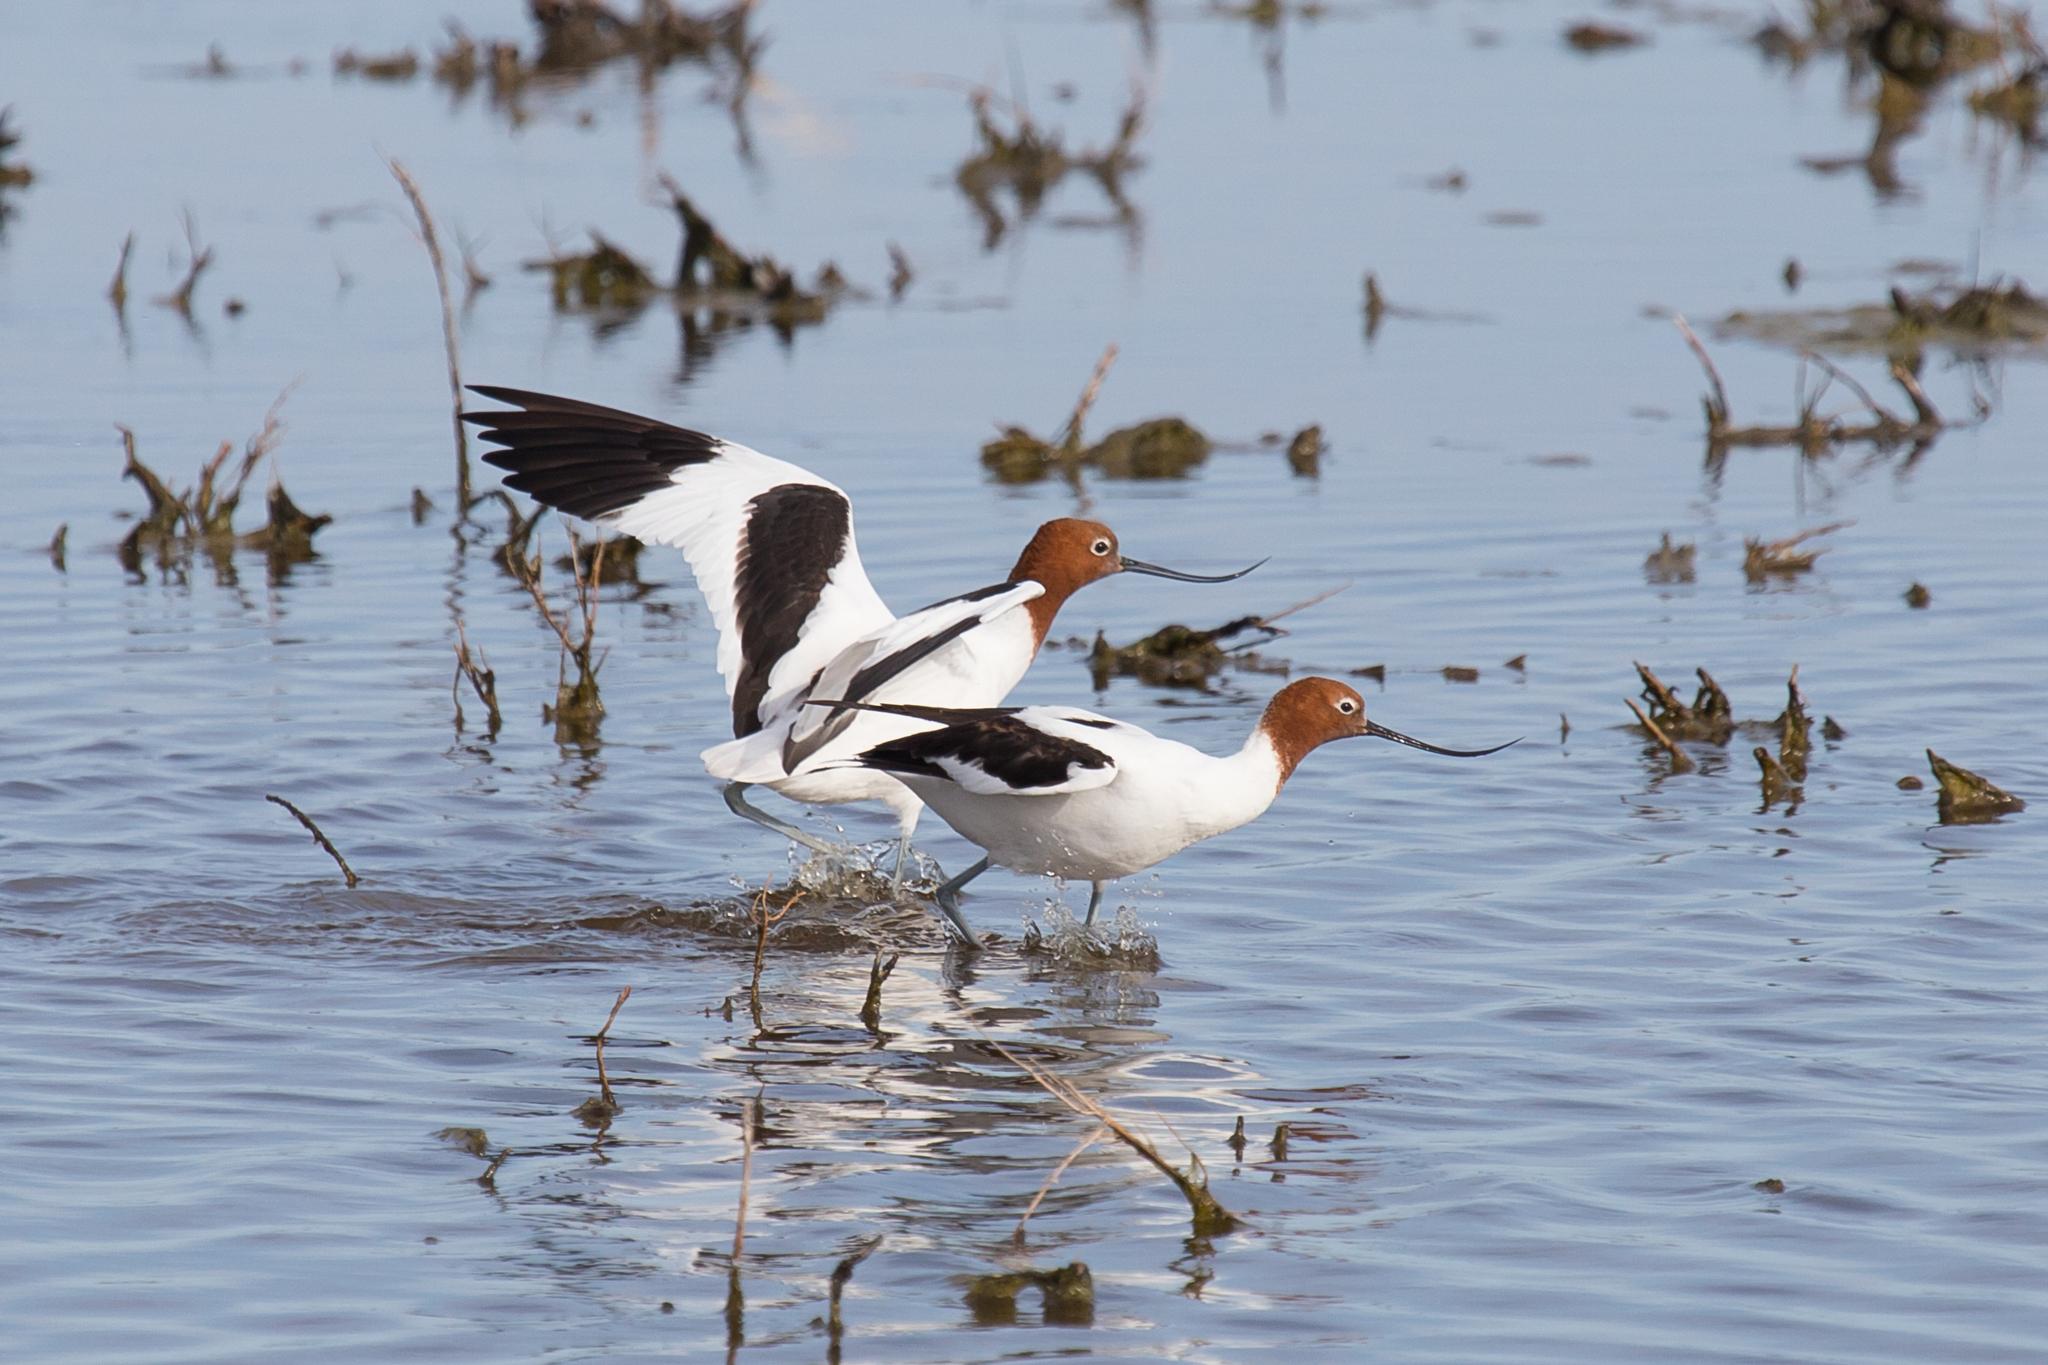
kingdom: Animalia
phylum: Chordata
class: Aves
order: Charadriiformes
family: Recurvirostridae
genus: Recurvirostra
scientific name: Recurvirostra novaehollandiae
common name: Red-necked avocet
